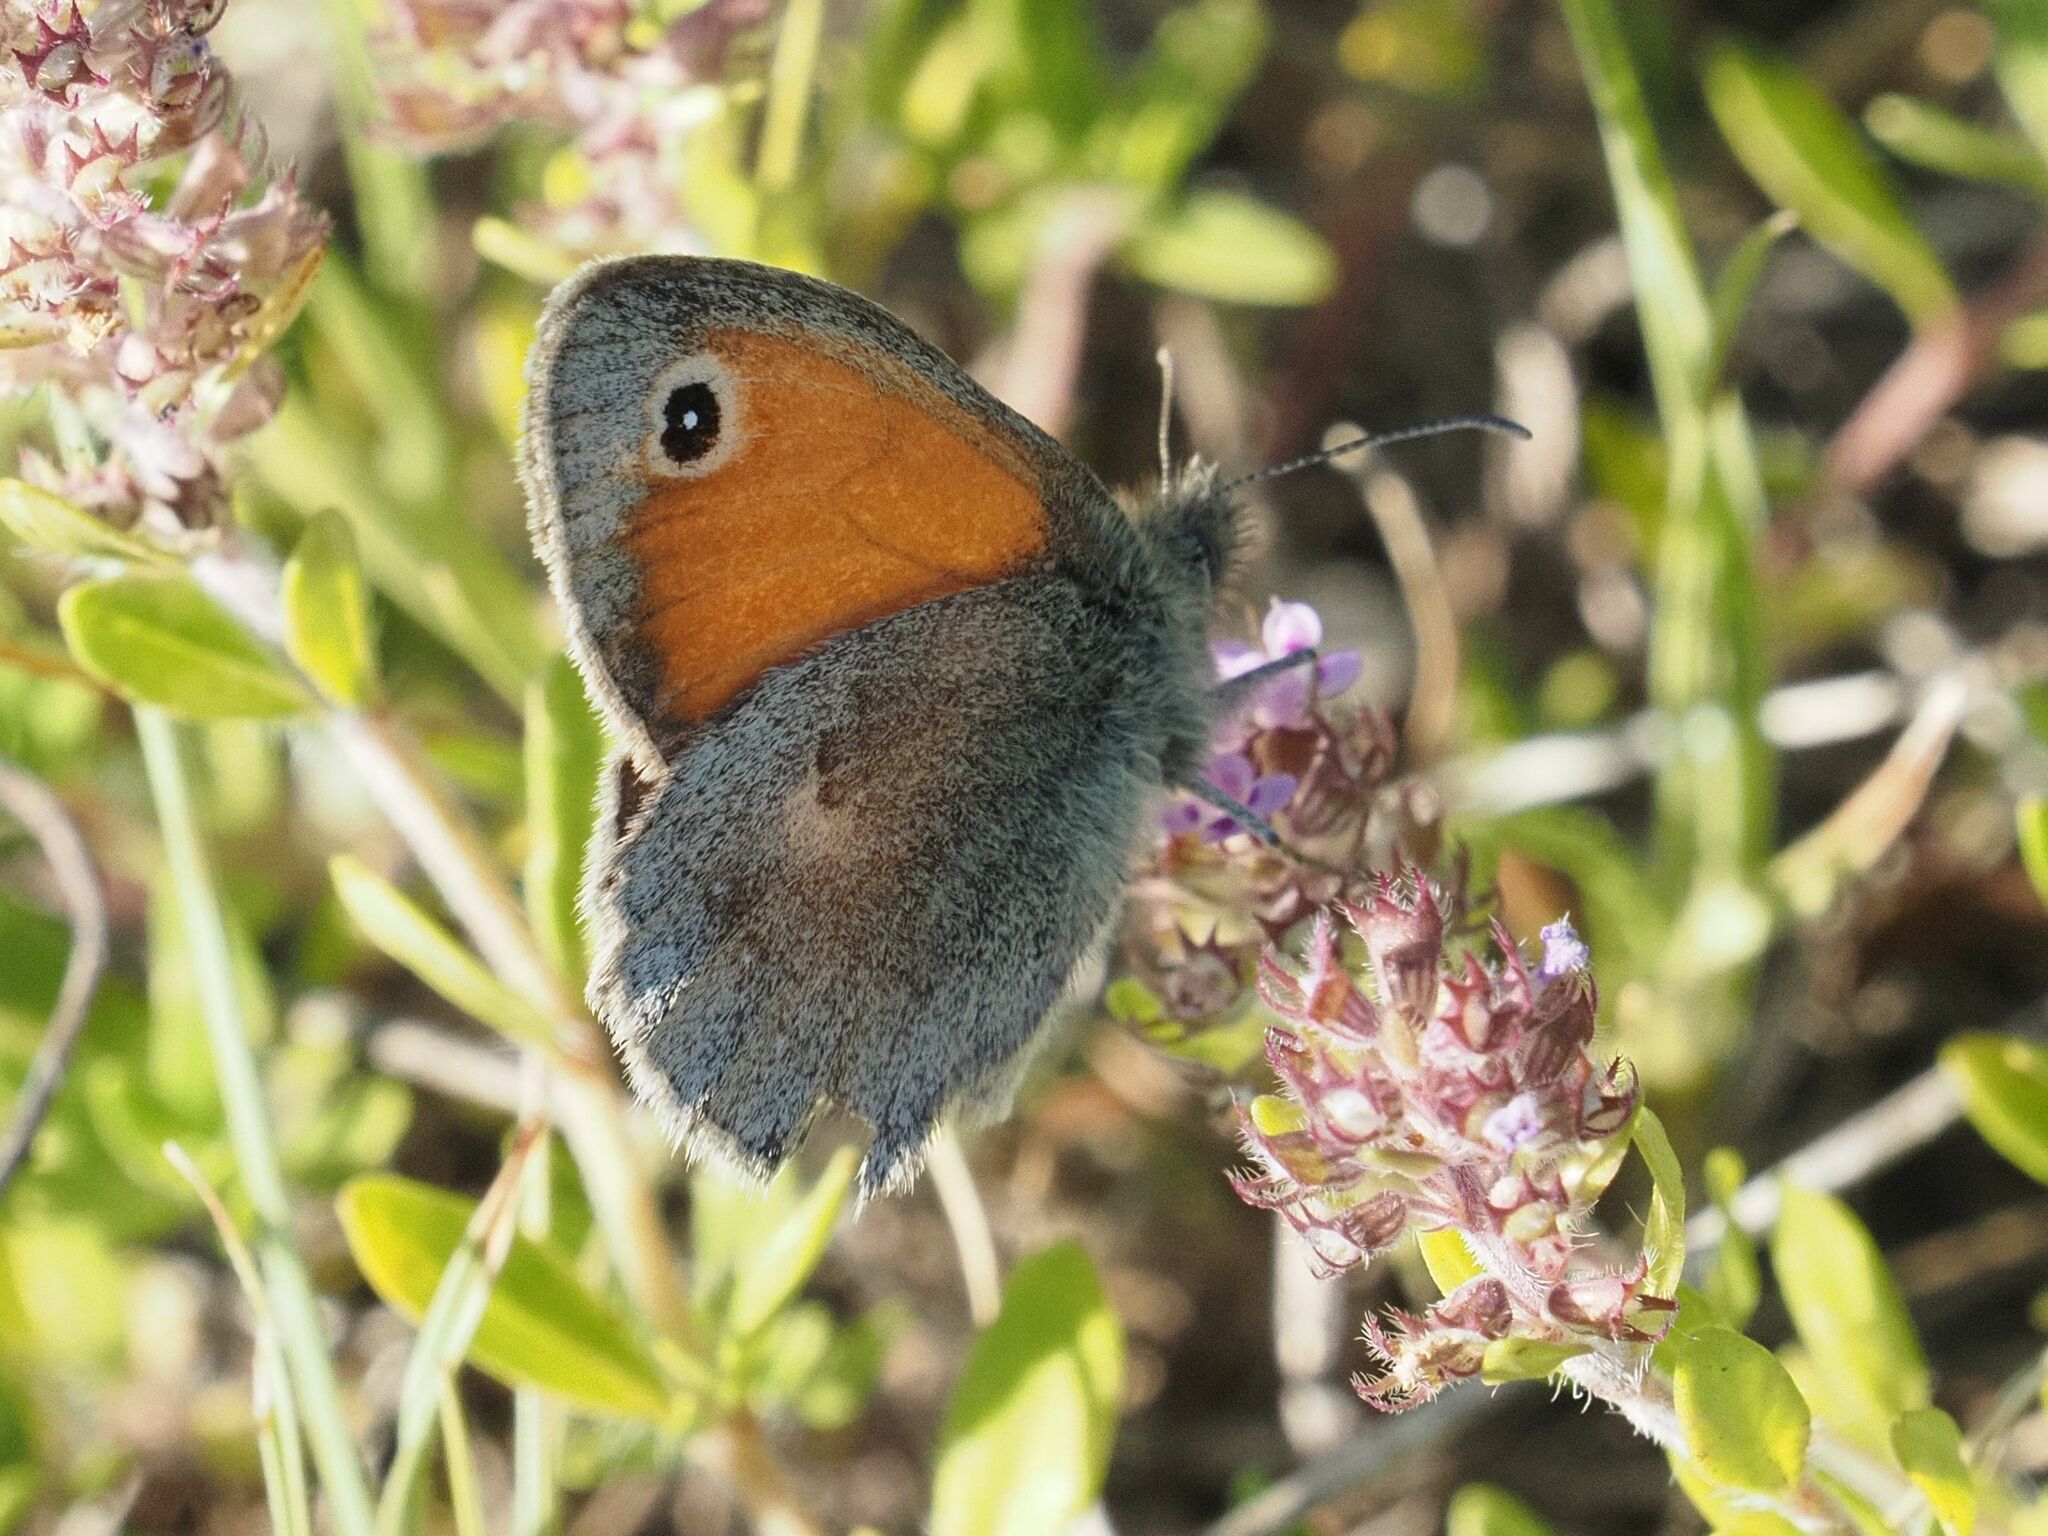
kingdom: Animalia
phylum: Arthropoda
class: Insecta
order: Lepidoptera
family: Nymphalidae
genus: Coenonympha
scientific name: Coenonympha pamphilus
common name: Small heath
